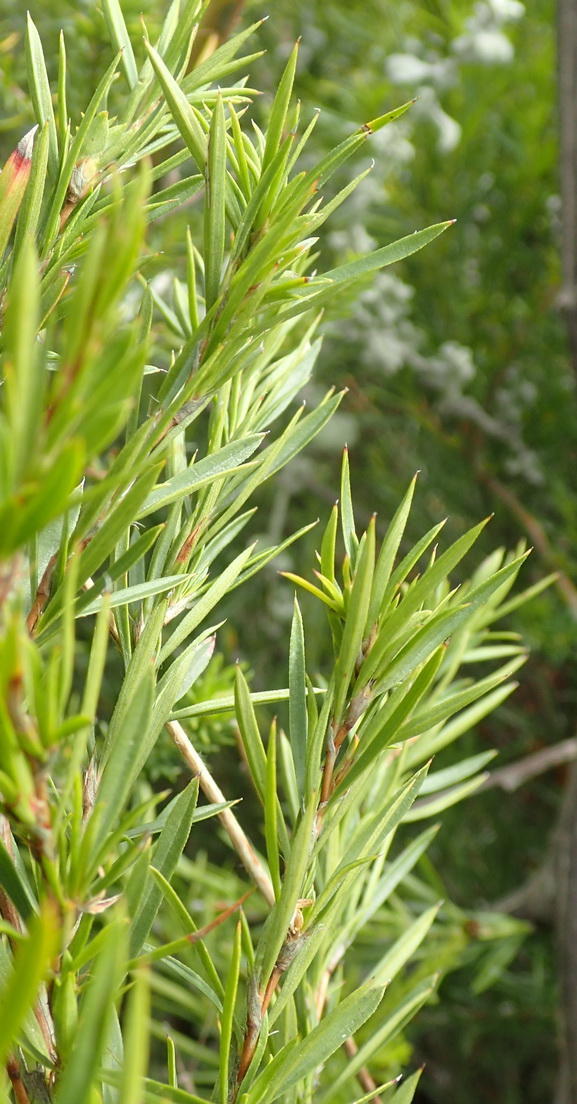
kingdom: Plantae
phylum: Tracheophyta
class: Magnoliopsida
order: Rosales
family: Rosaceae
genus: Cliffortia
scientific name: Cliffortia strobilifera
